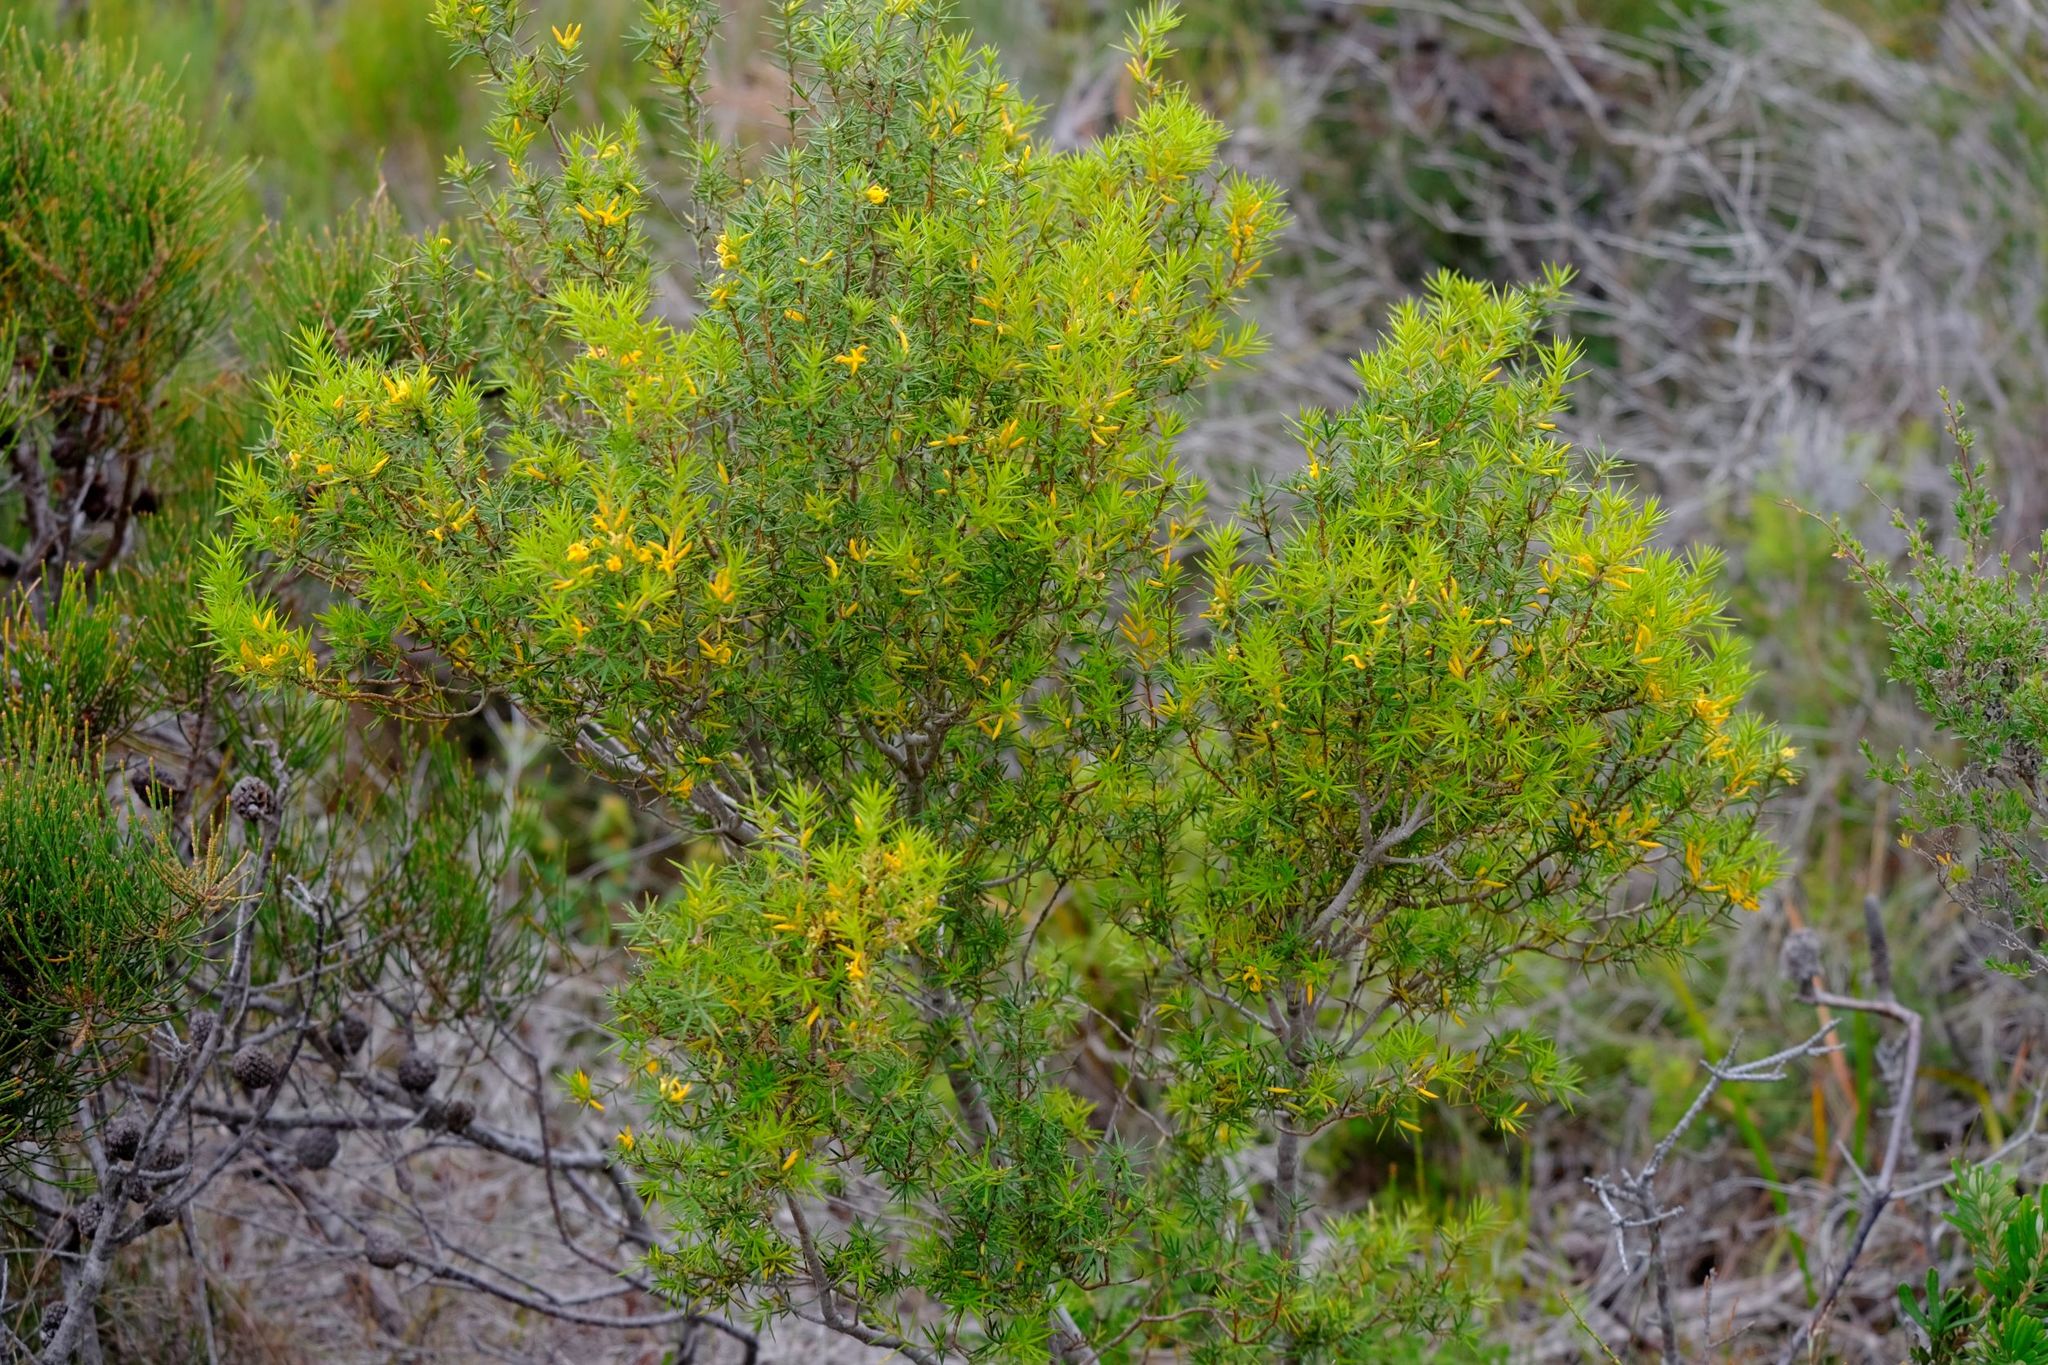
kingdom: Plantae
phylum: Tracheophyta
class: Magnoliopsida
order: Proteales
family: Proteaceae
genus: Persoonia
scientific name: Persoonia juniperina
